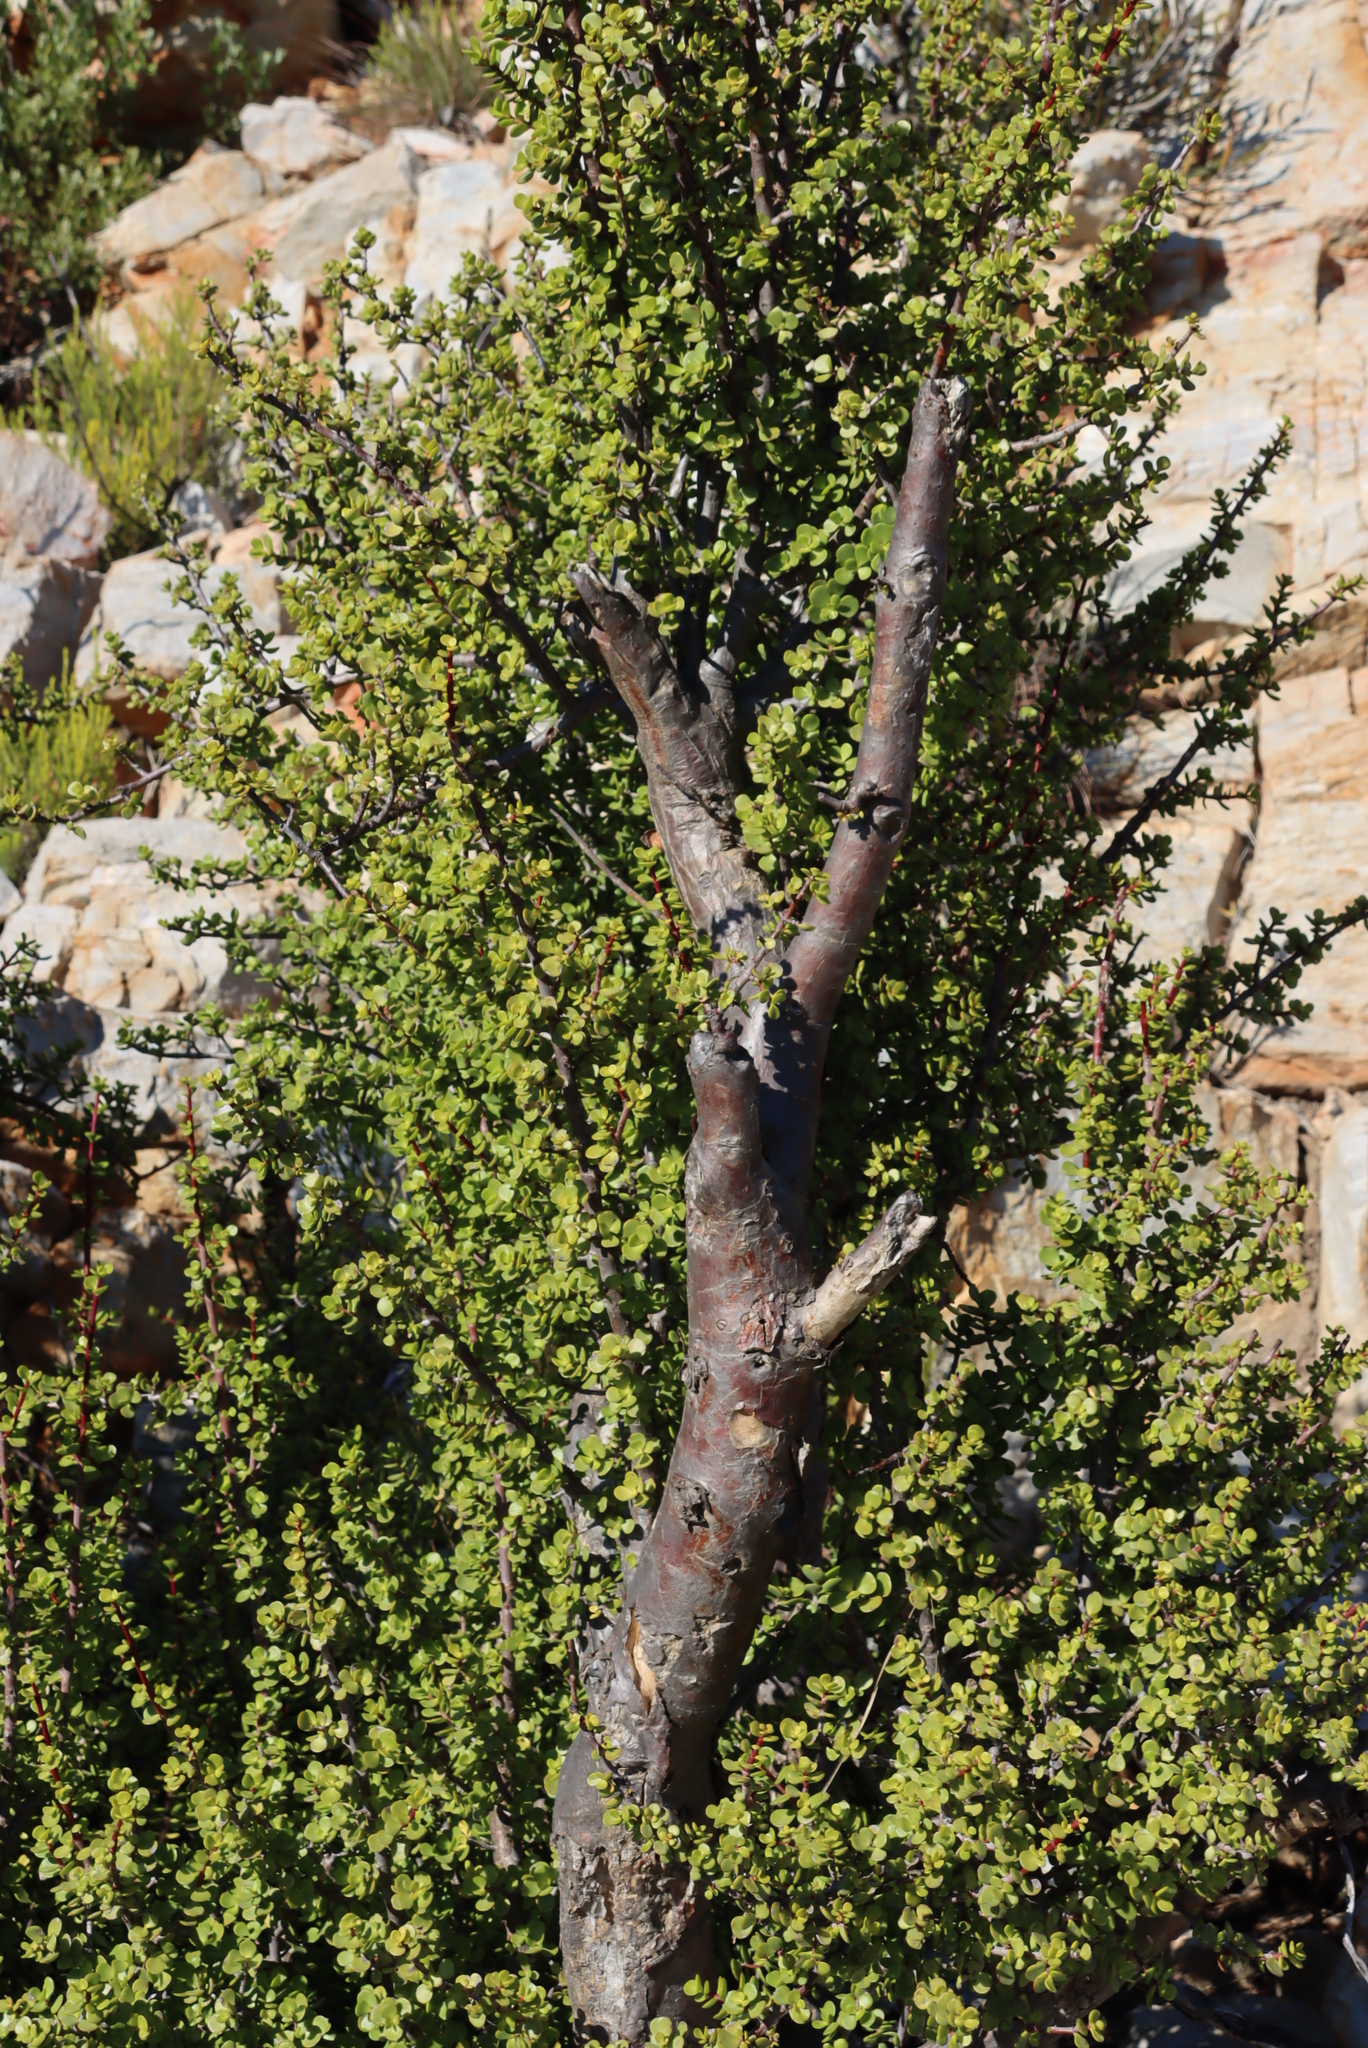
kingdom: Plantae
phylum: Tracheophyta
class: Magnoliopsida
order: Caryophyllales
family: Didiereaceae
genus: Portulacaria
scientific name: Portulacaria afra
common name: Elephant-bush
